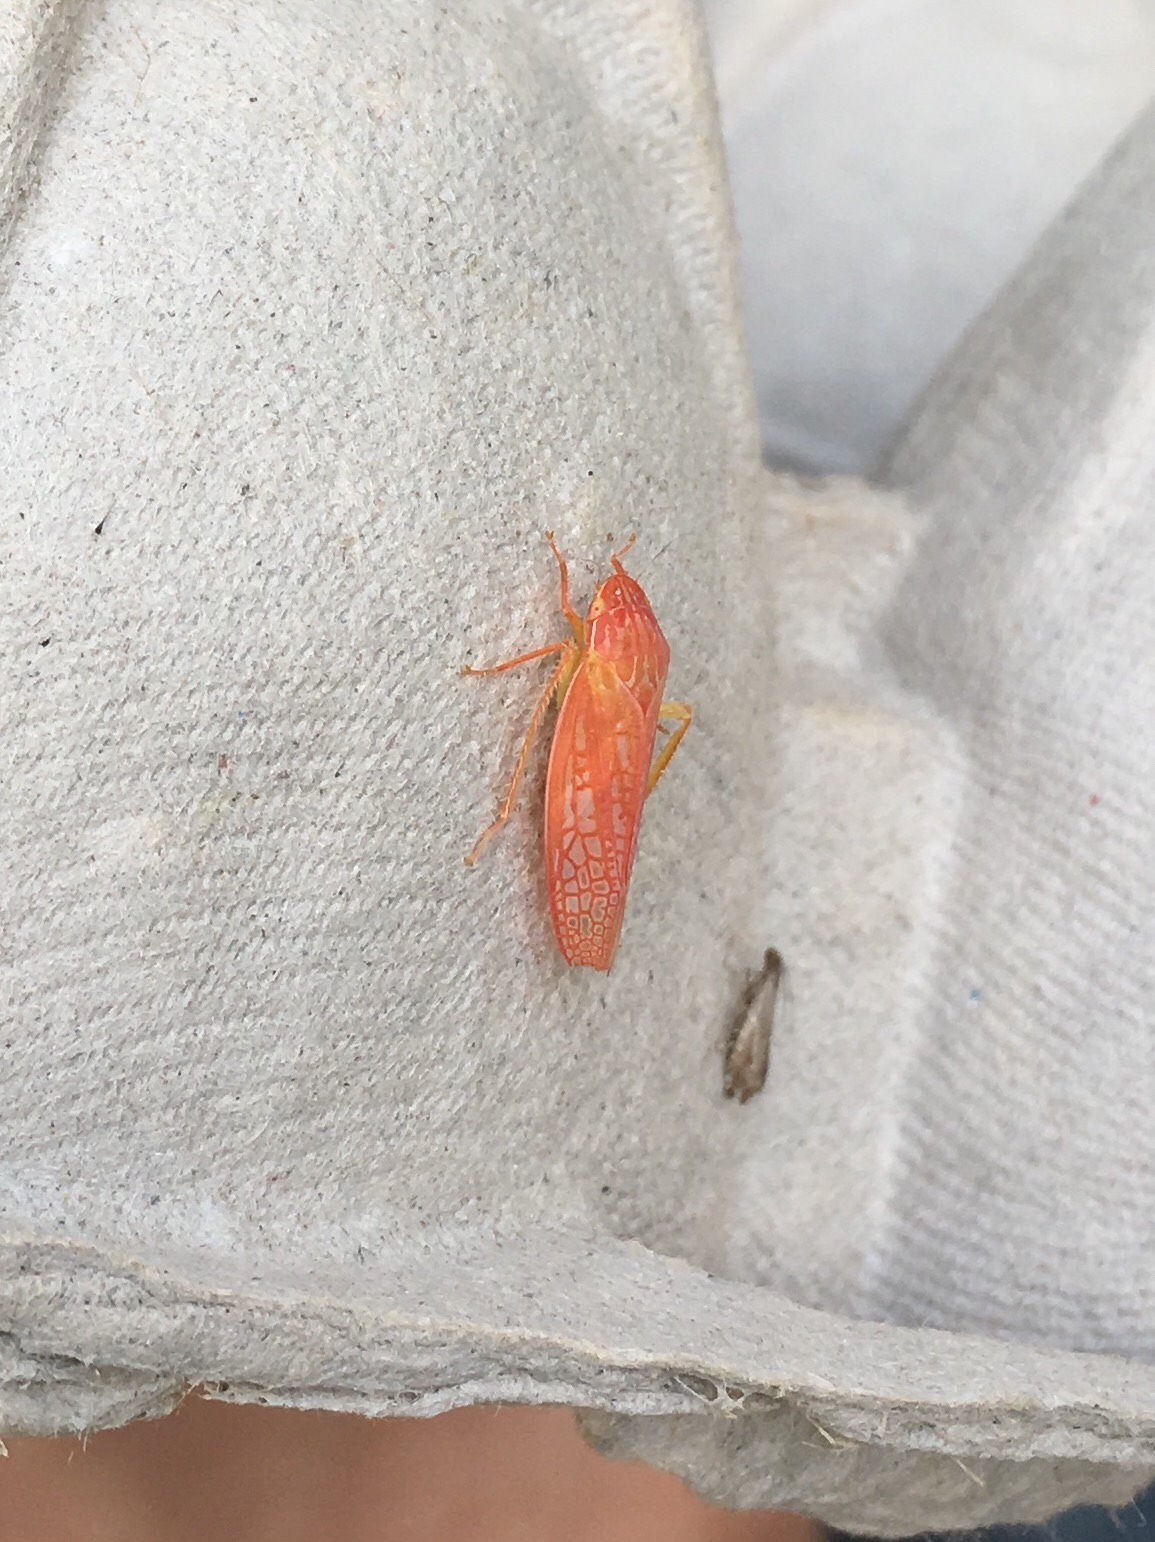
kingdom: Animalia
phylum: Arthropoda
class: Insecta
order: Hemiptera
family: Cicadellidae
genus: Gyponana
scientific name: Gyponana octolineata
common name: Eight-lined leafhopper
